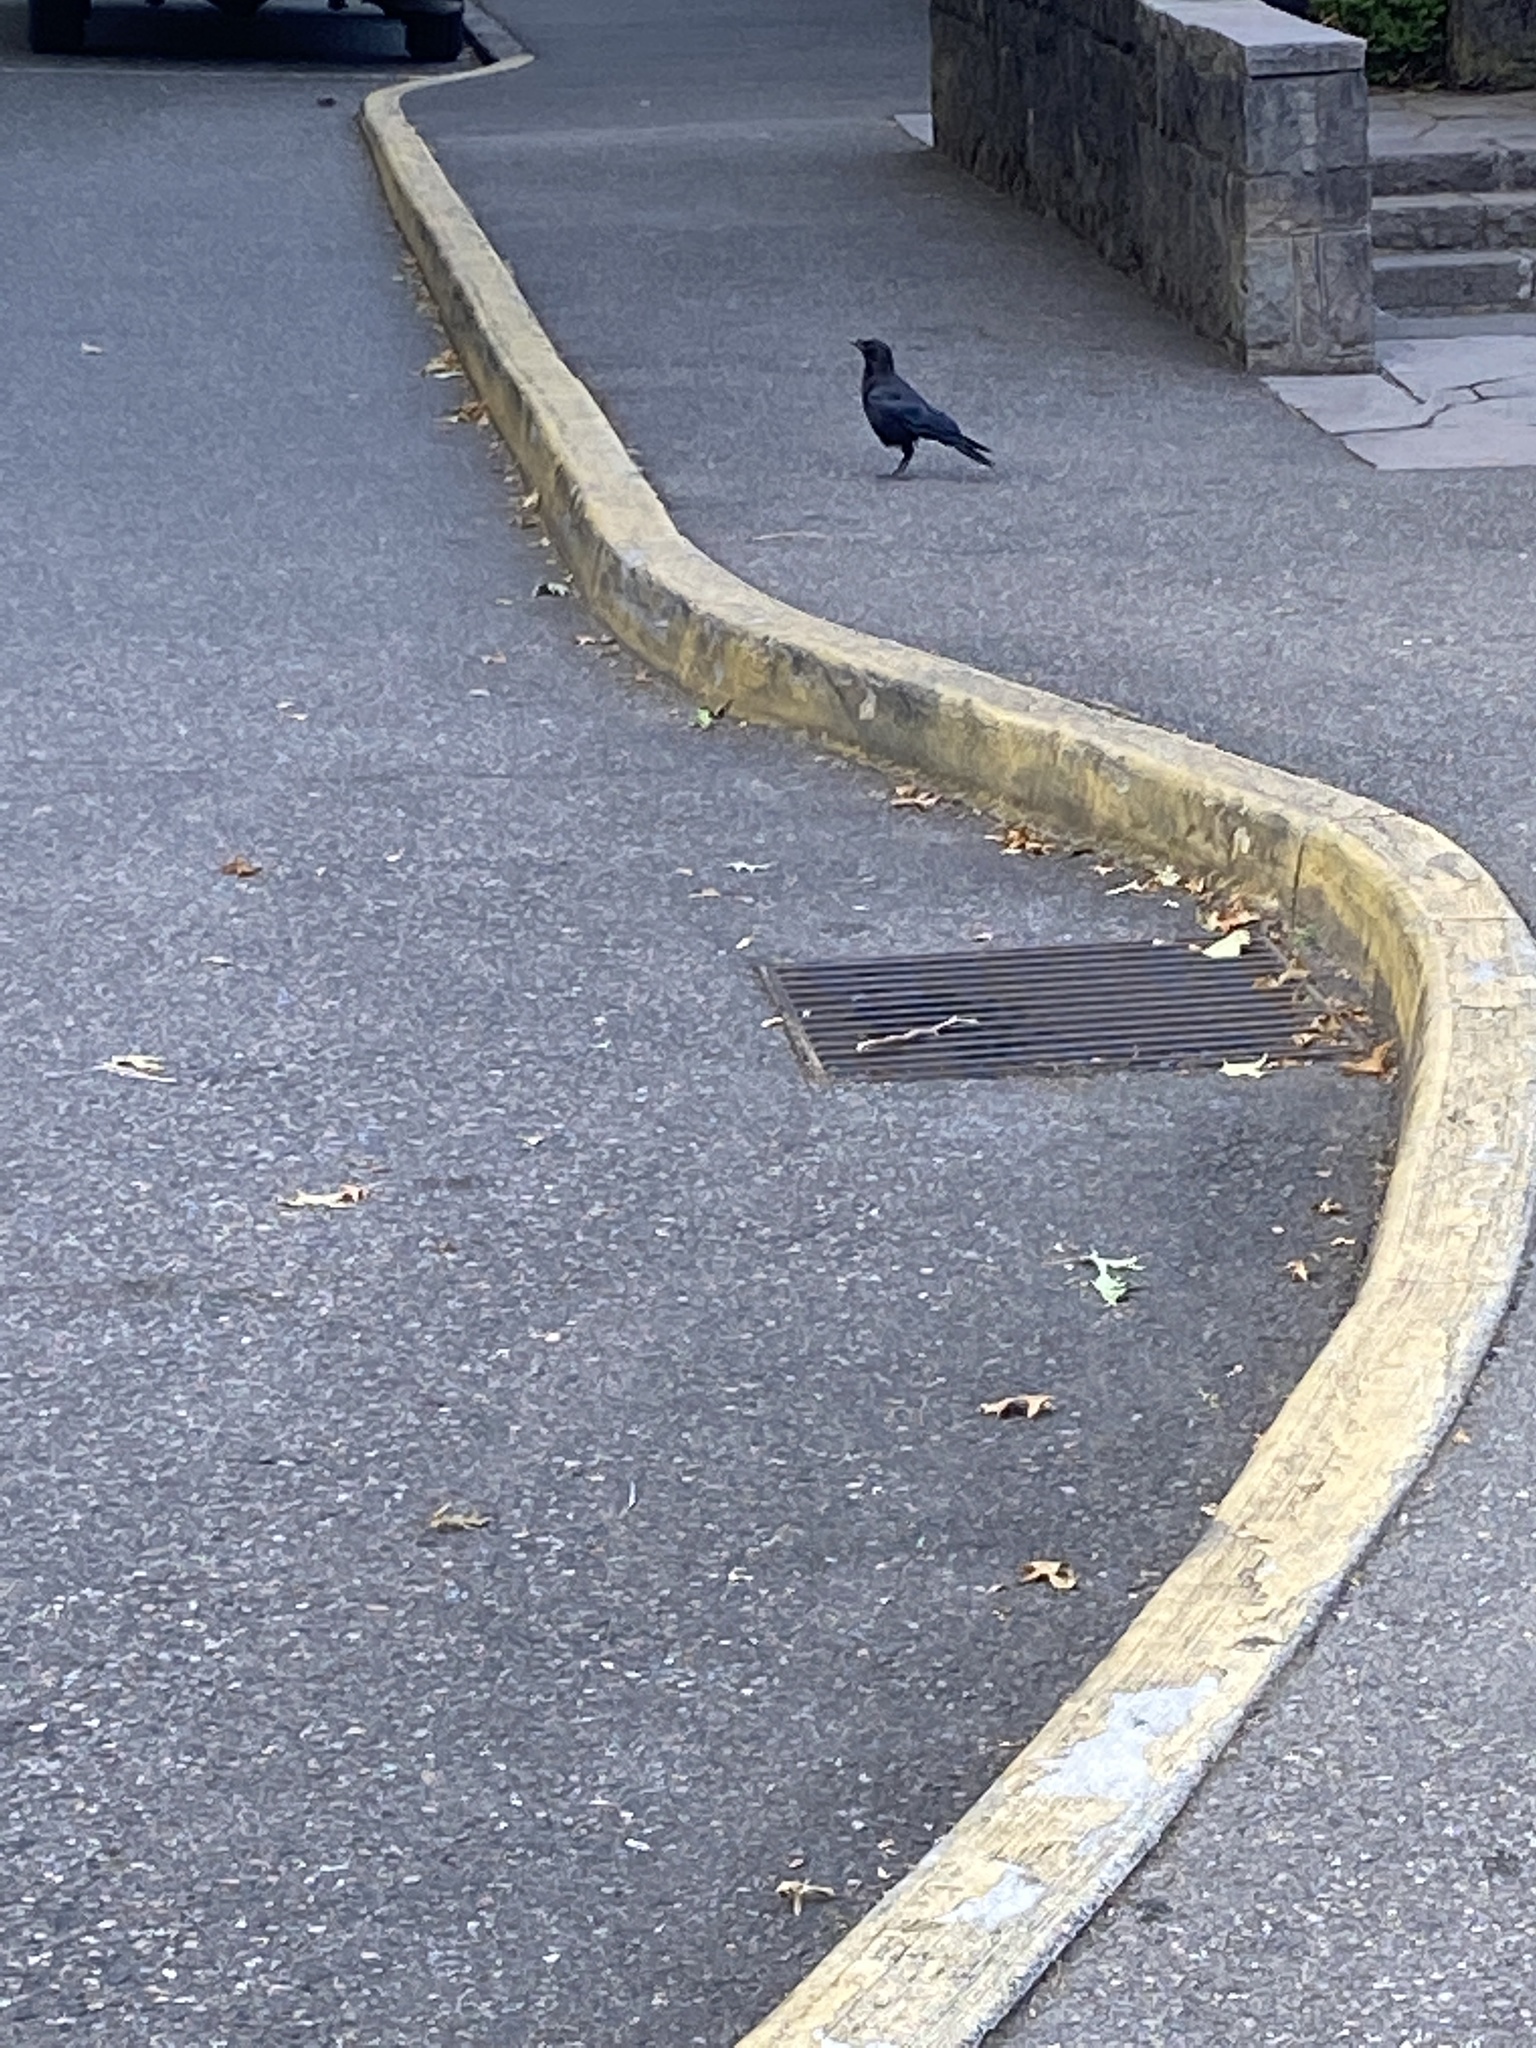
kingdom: Animalia
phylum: Chordata
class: Aves
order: Passeriformes
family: Corvidae
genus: Corvus
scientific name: Corvus brachyrhynchos
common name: American crow
